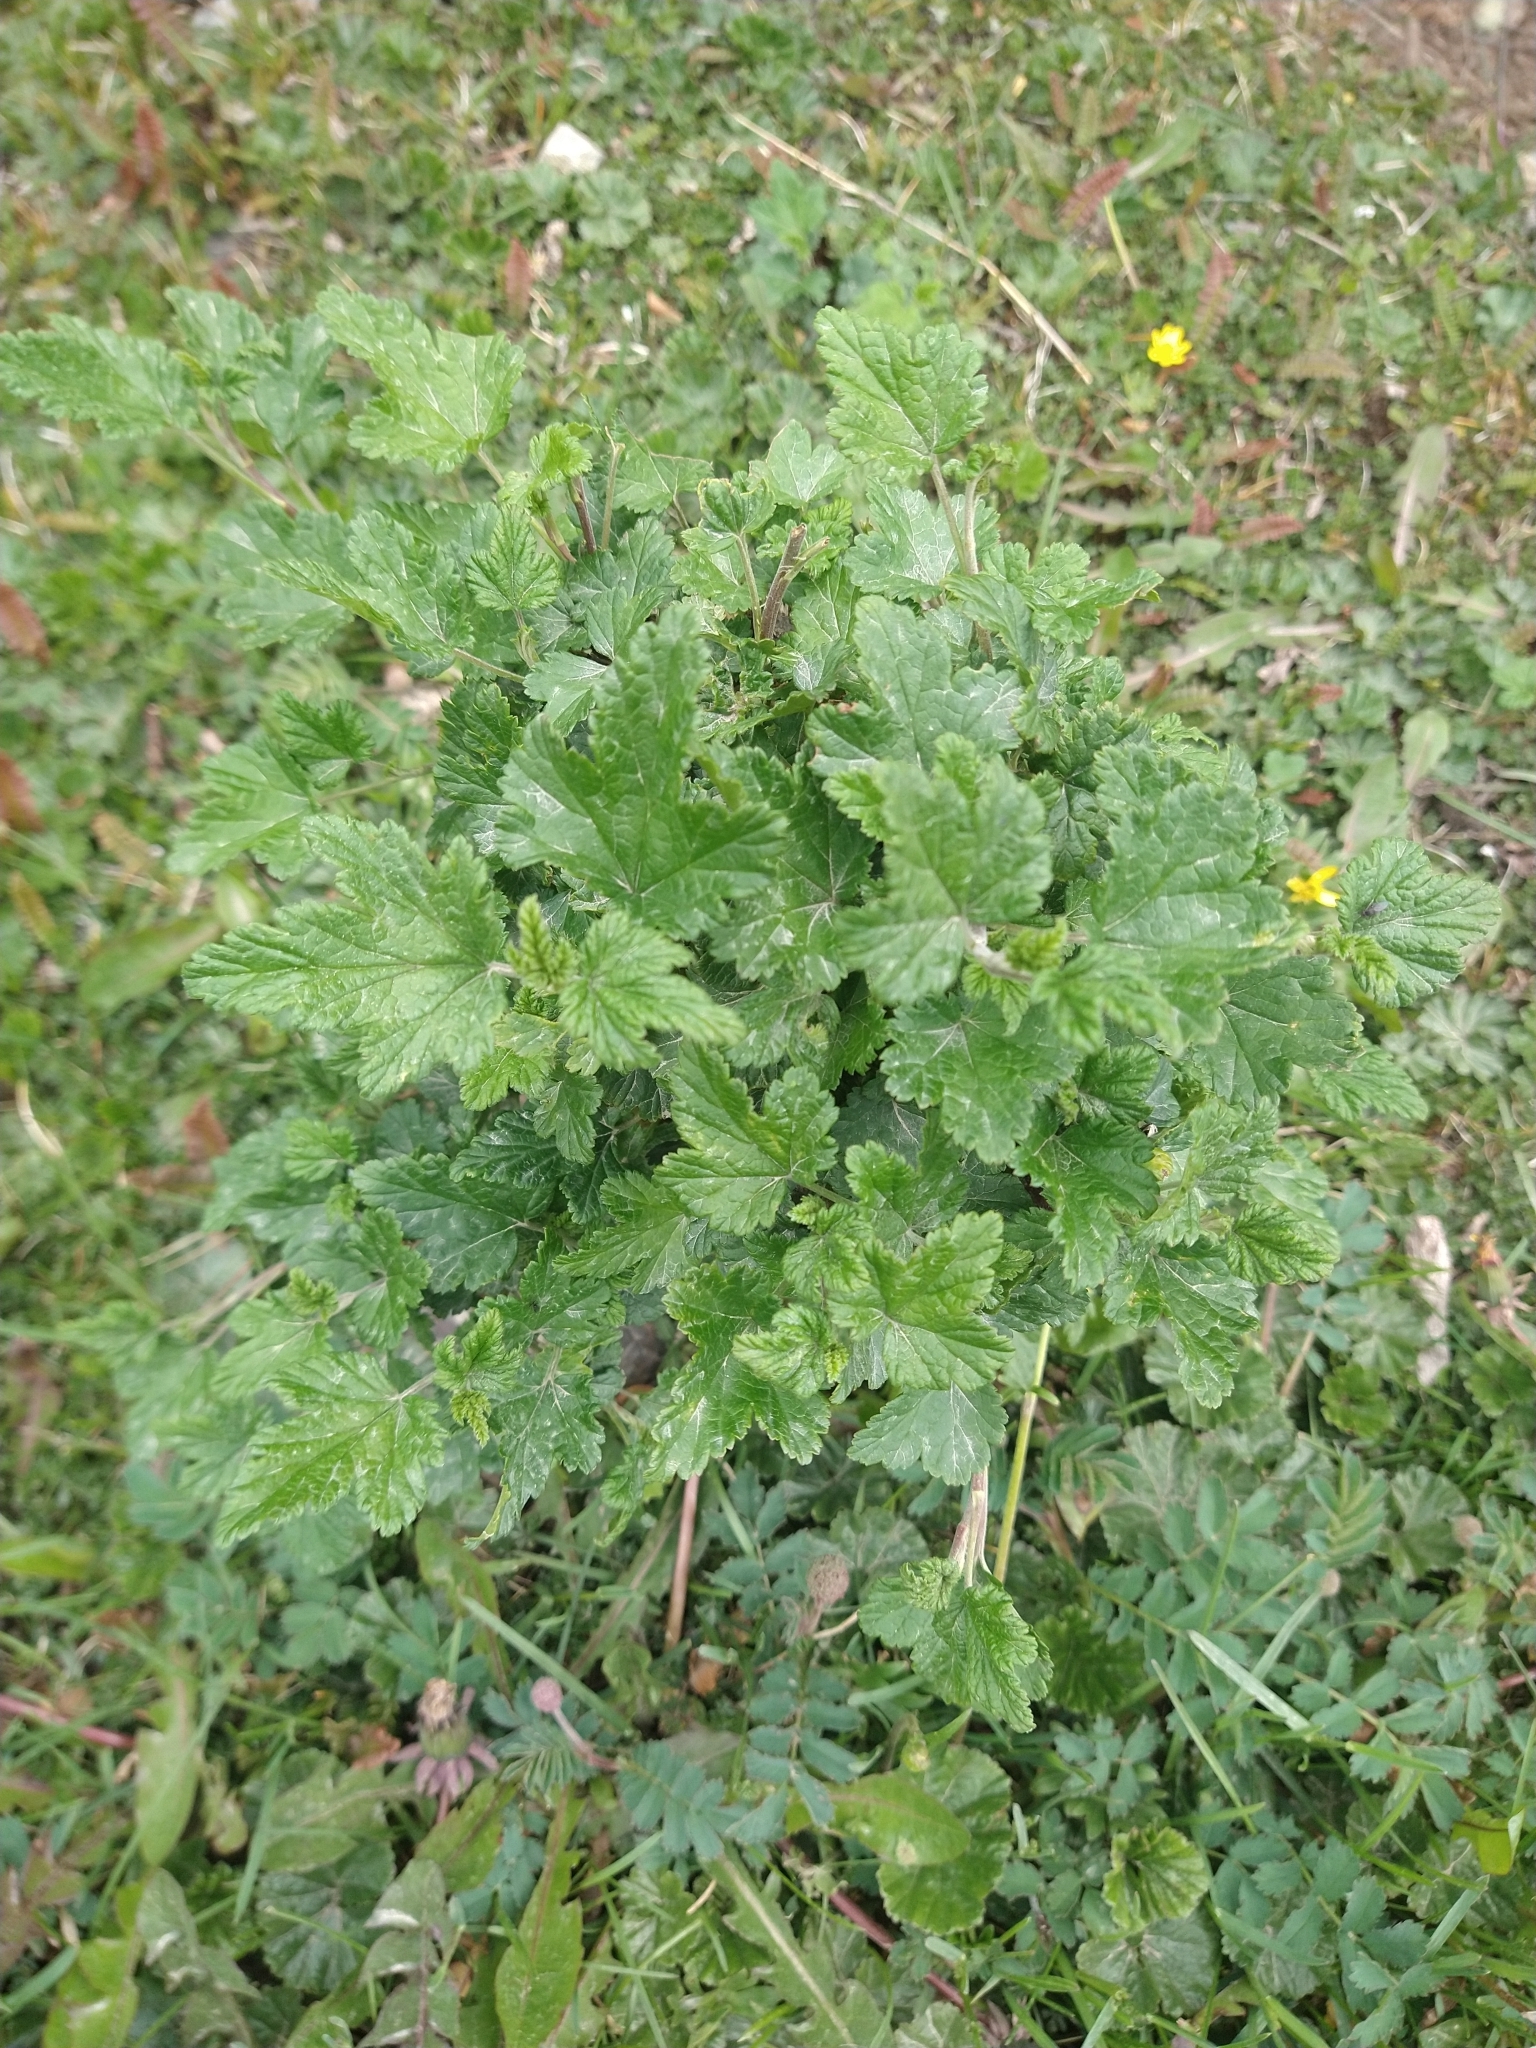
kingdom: Plantae
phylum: Tracheophyta
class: Magnoliopsida
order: Saxifragales
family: Grossulariaceae
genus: Ribes
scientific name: Ribes magellanicum
